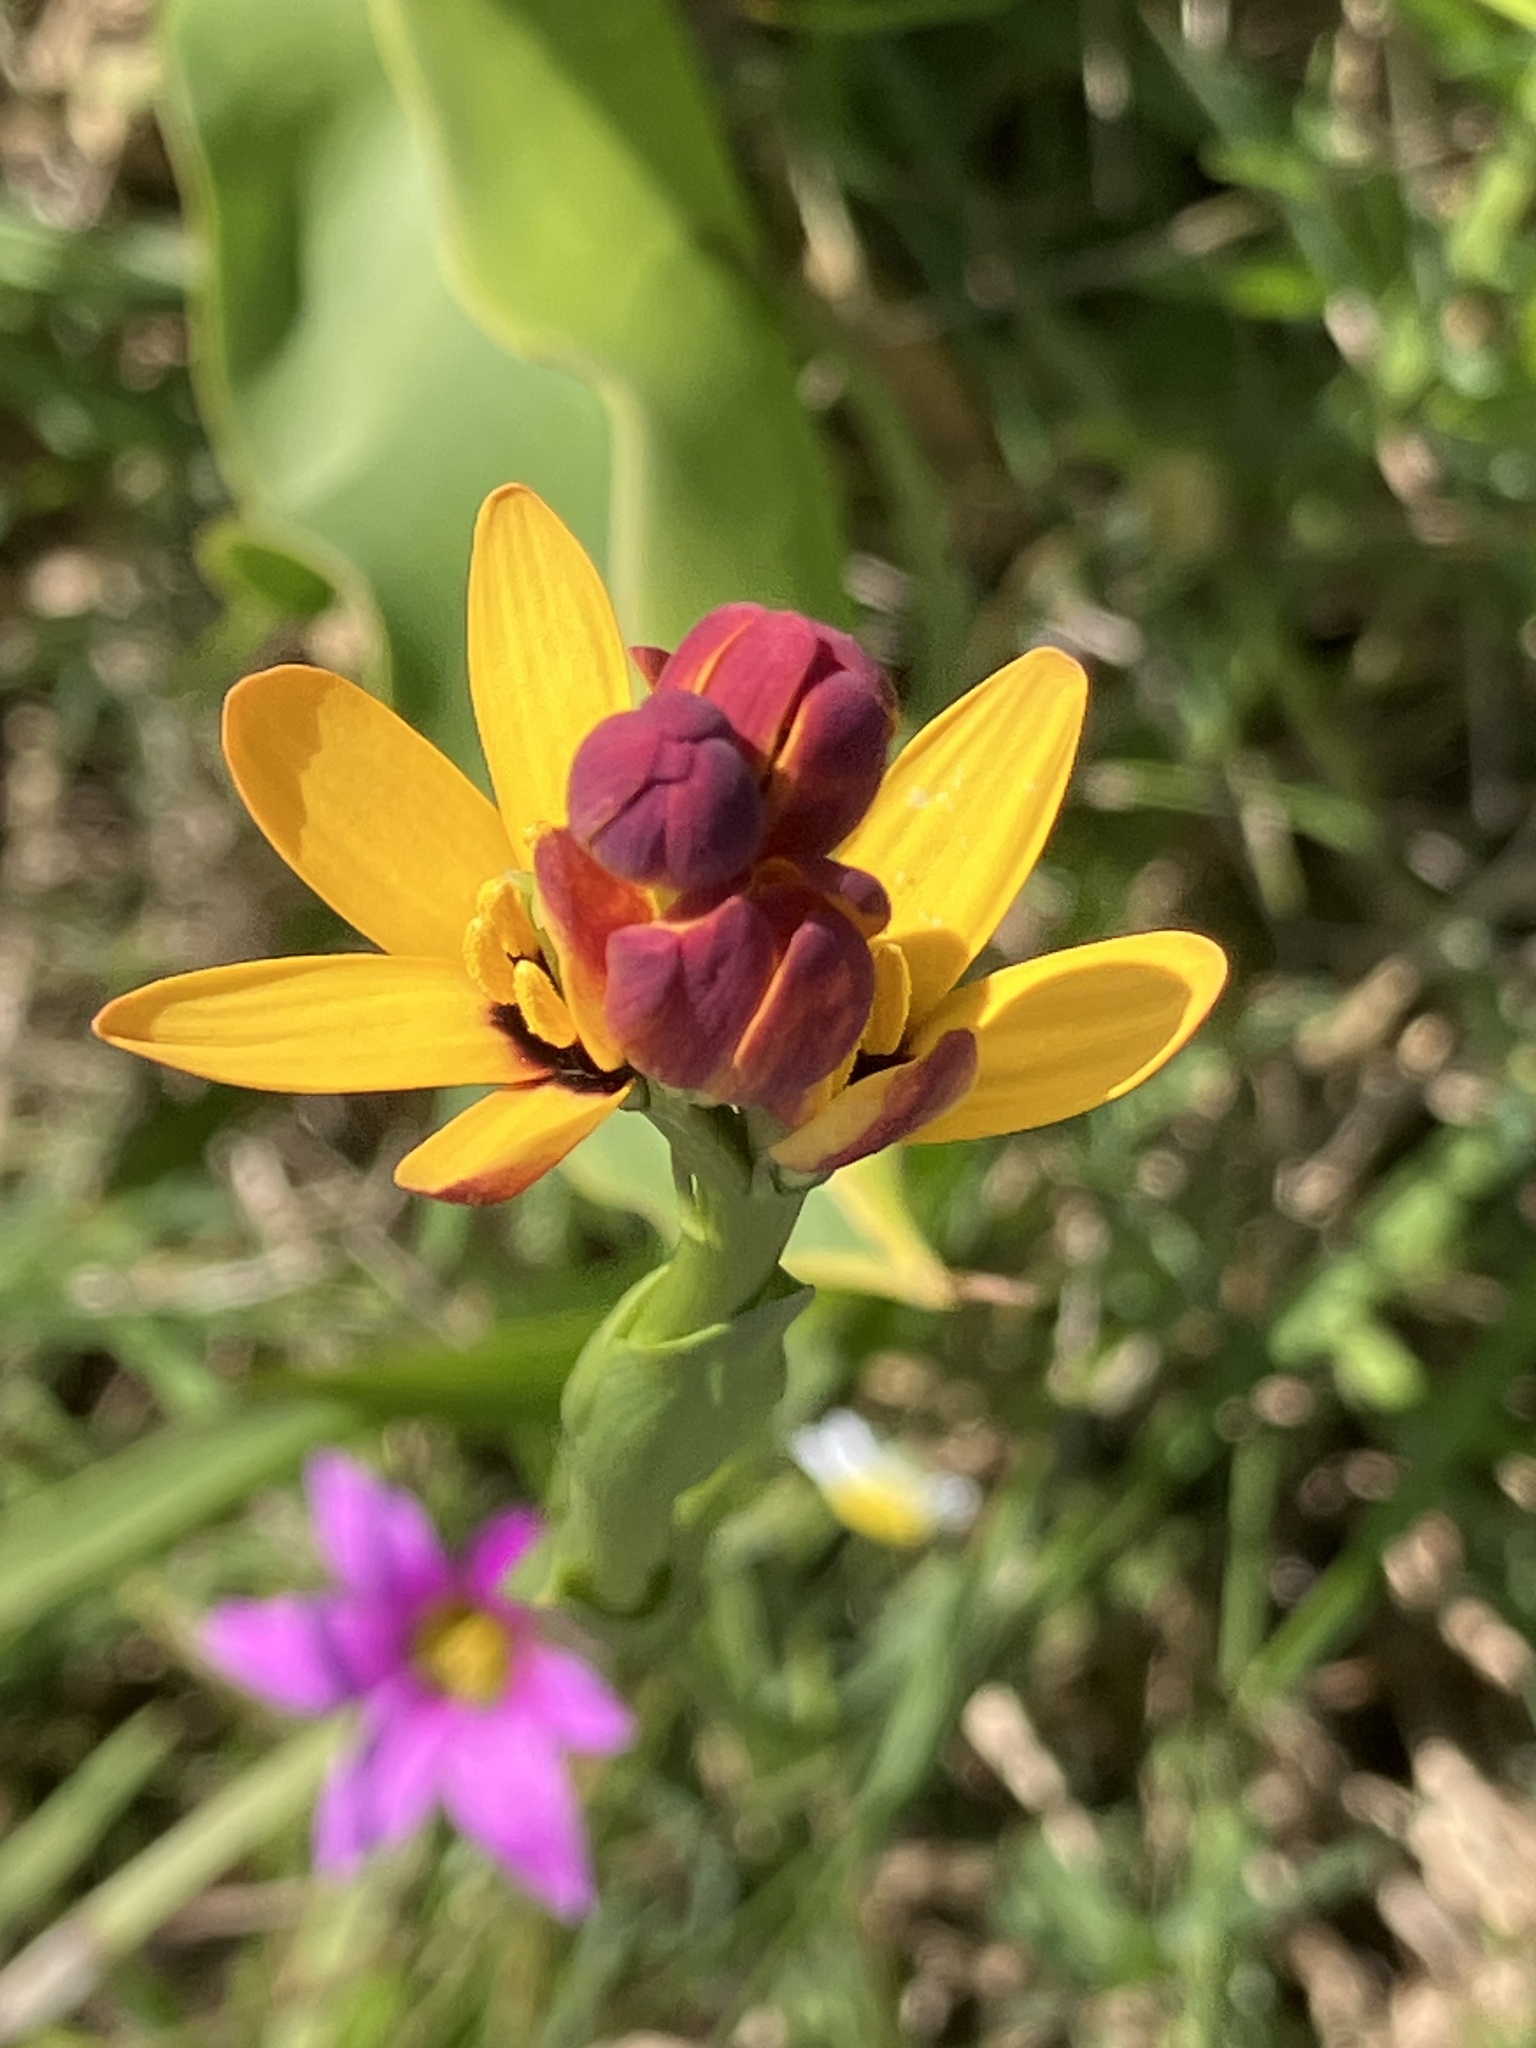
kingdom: Plantae
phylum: Tracheophyta
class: Liliopsida
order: Liliales
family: Colchicaceae
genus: Baeometra
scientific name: Baeometra uniflora
